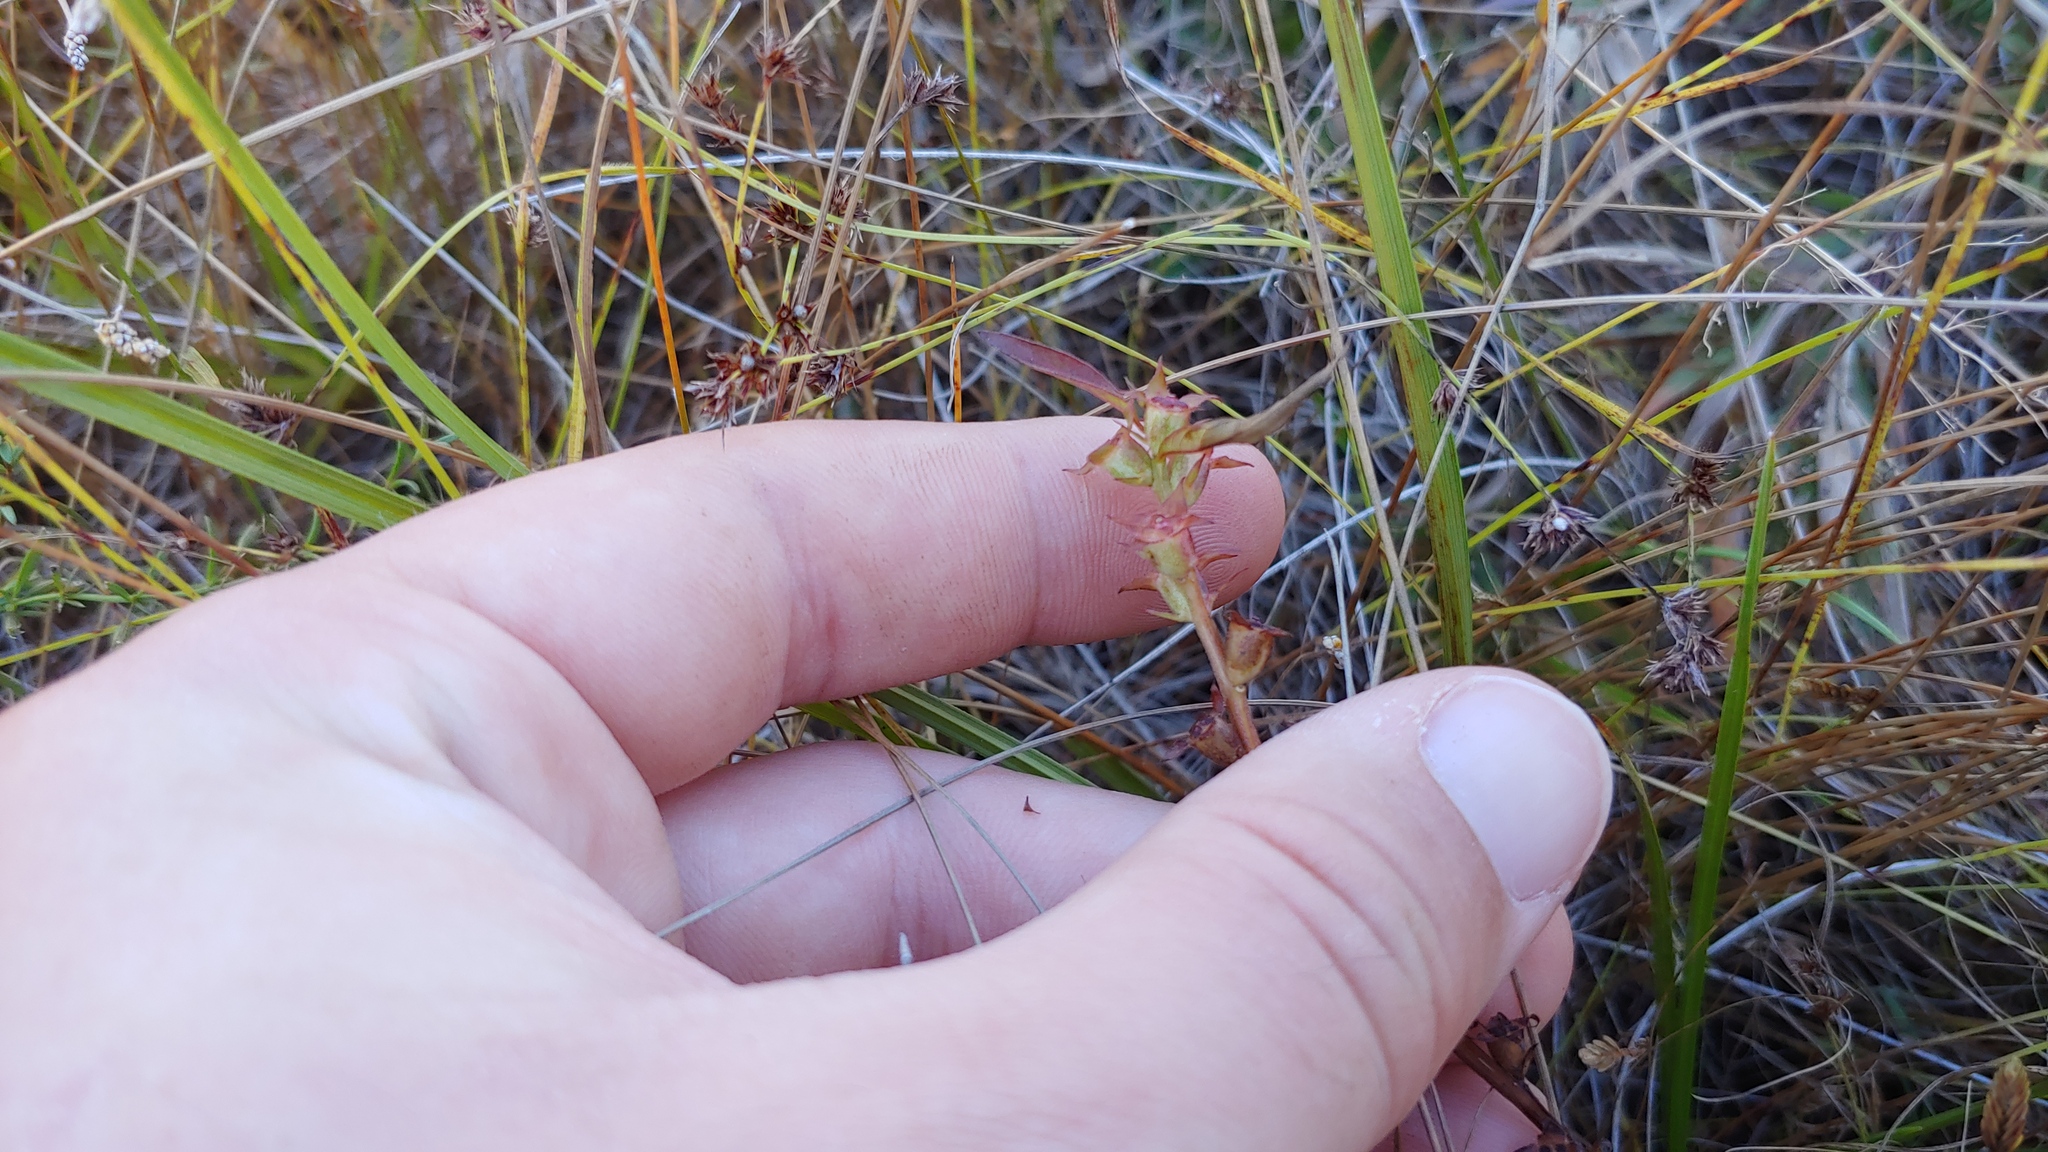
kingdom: Plantae
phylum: Tracheophyta
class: Magnoliopsida
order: Myrtales
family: Onagraceae
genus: Ludwigia
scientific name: Ludwigia polycarpa
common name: False loosestrife
